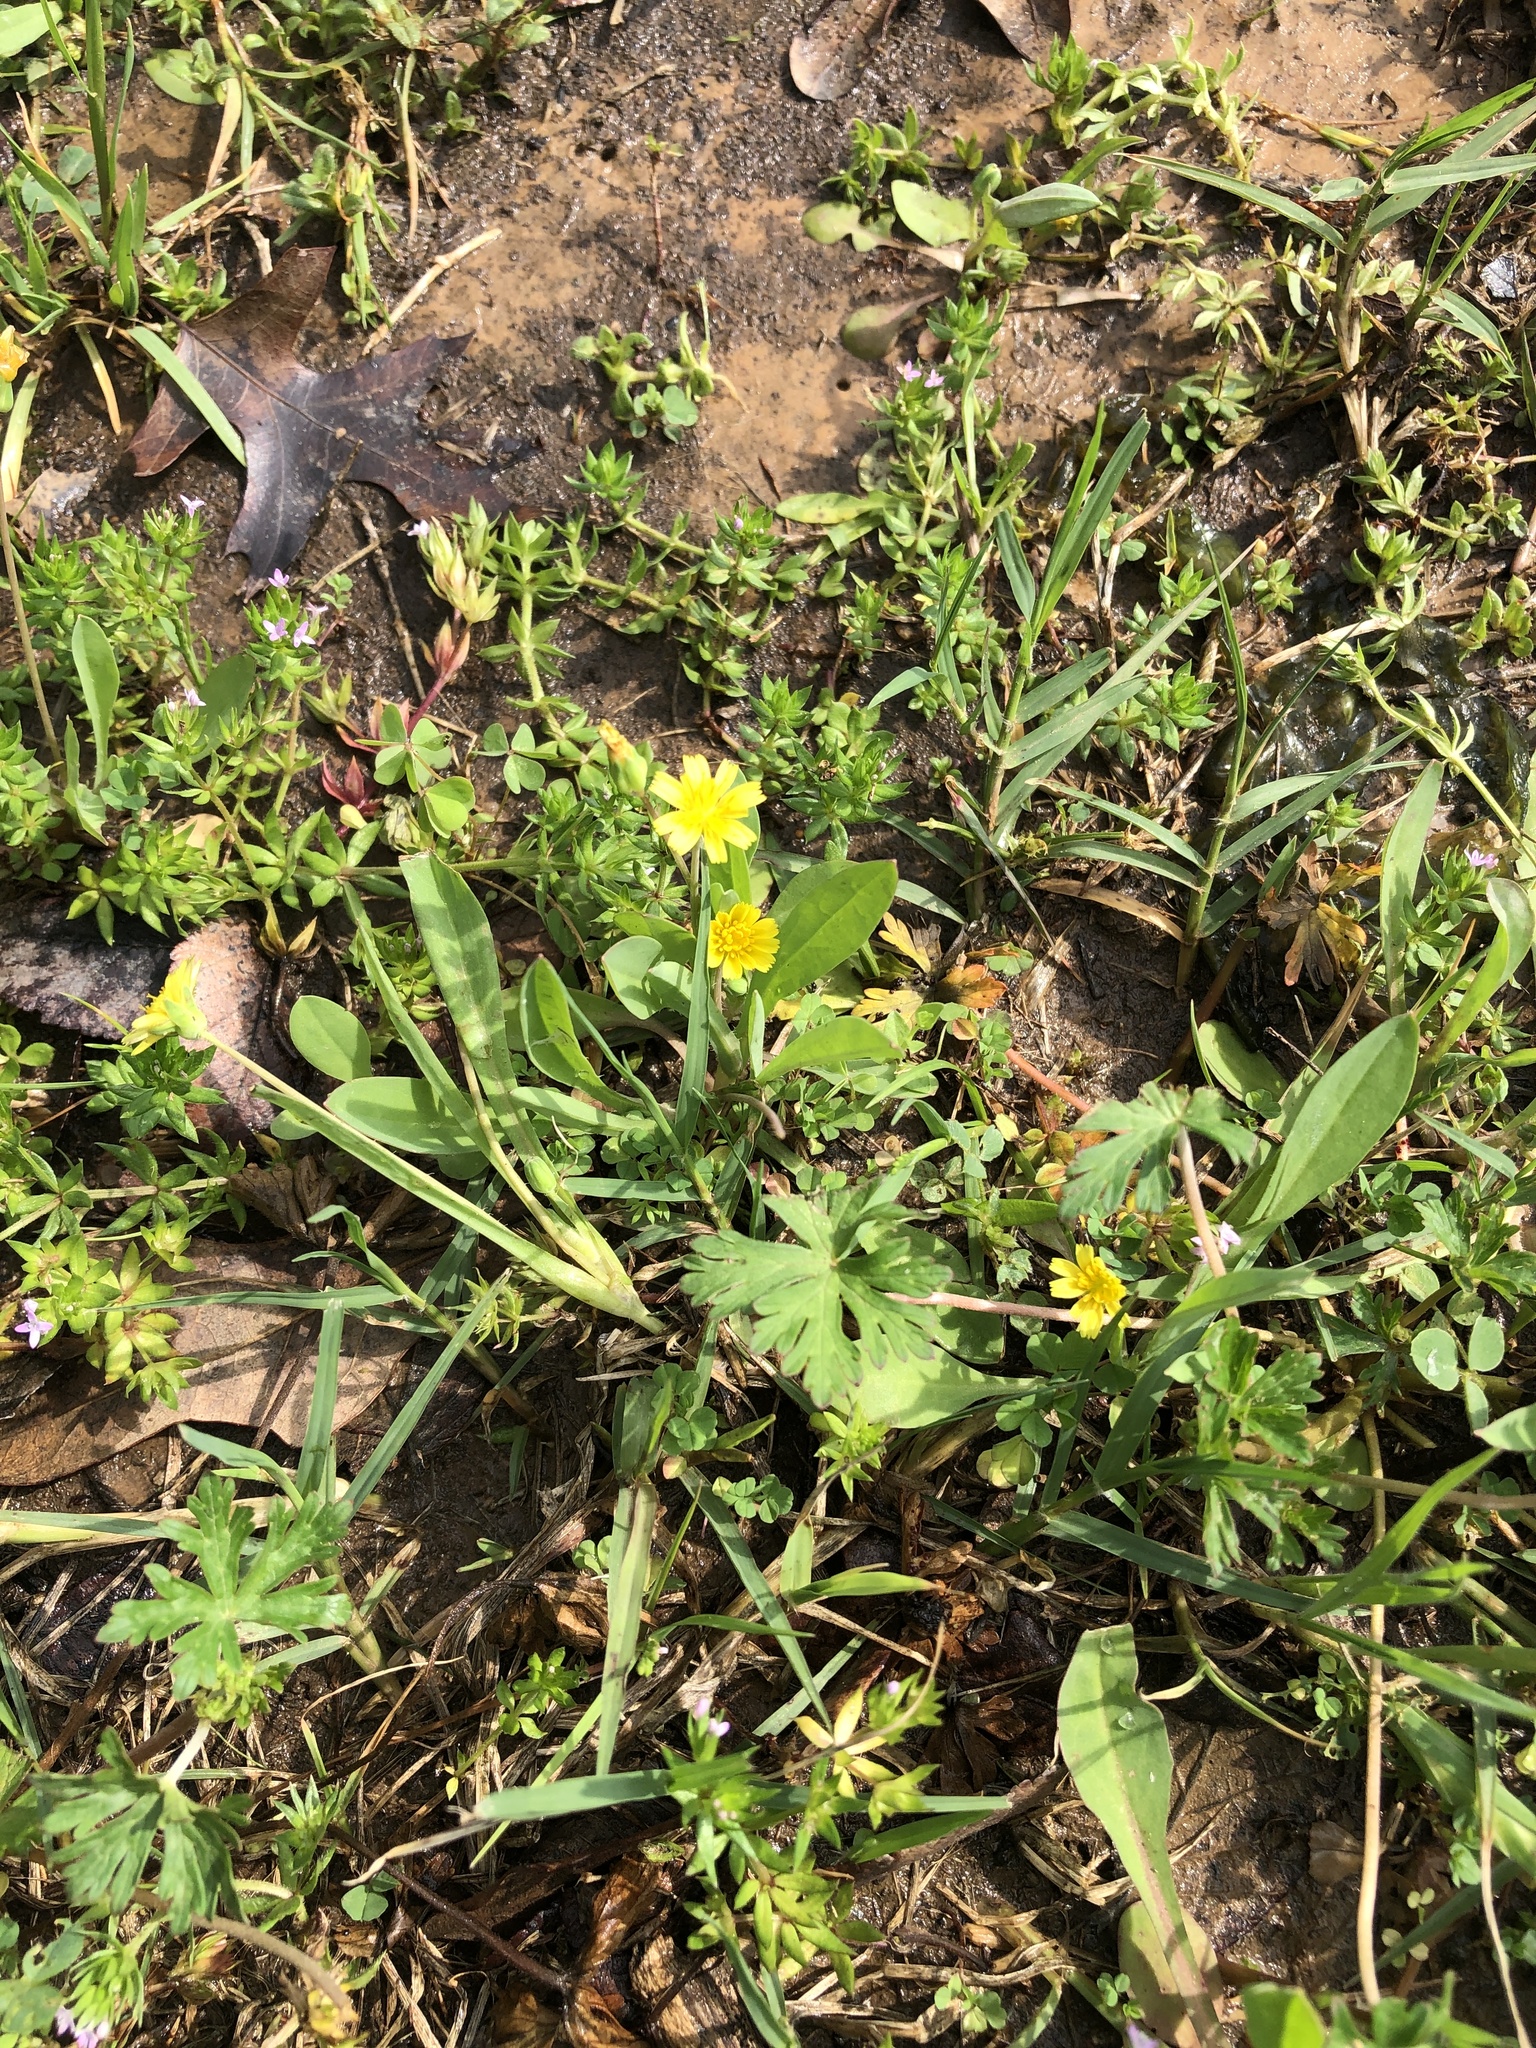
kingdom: Plantae
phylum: Tracheophyta
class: Magnoliopsida
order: Asterales
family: Asteraceae
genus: Krigia
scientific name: Krigia cespitosa
